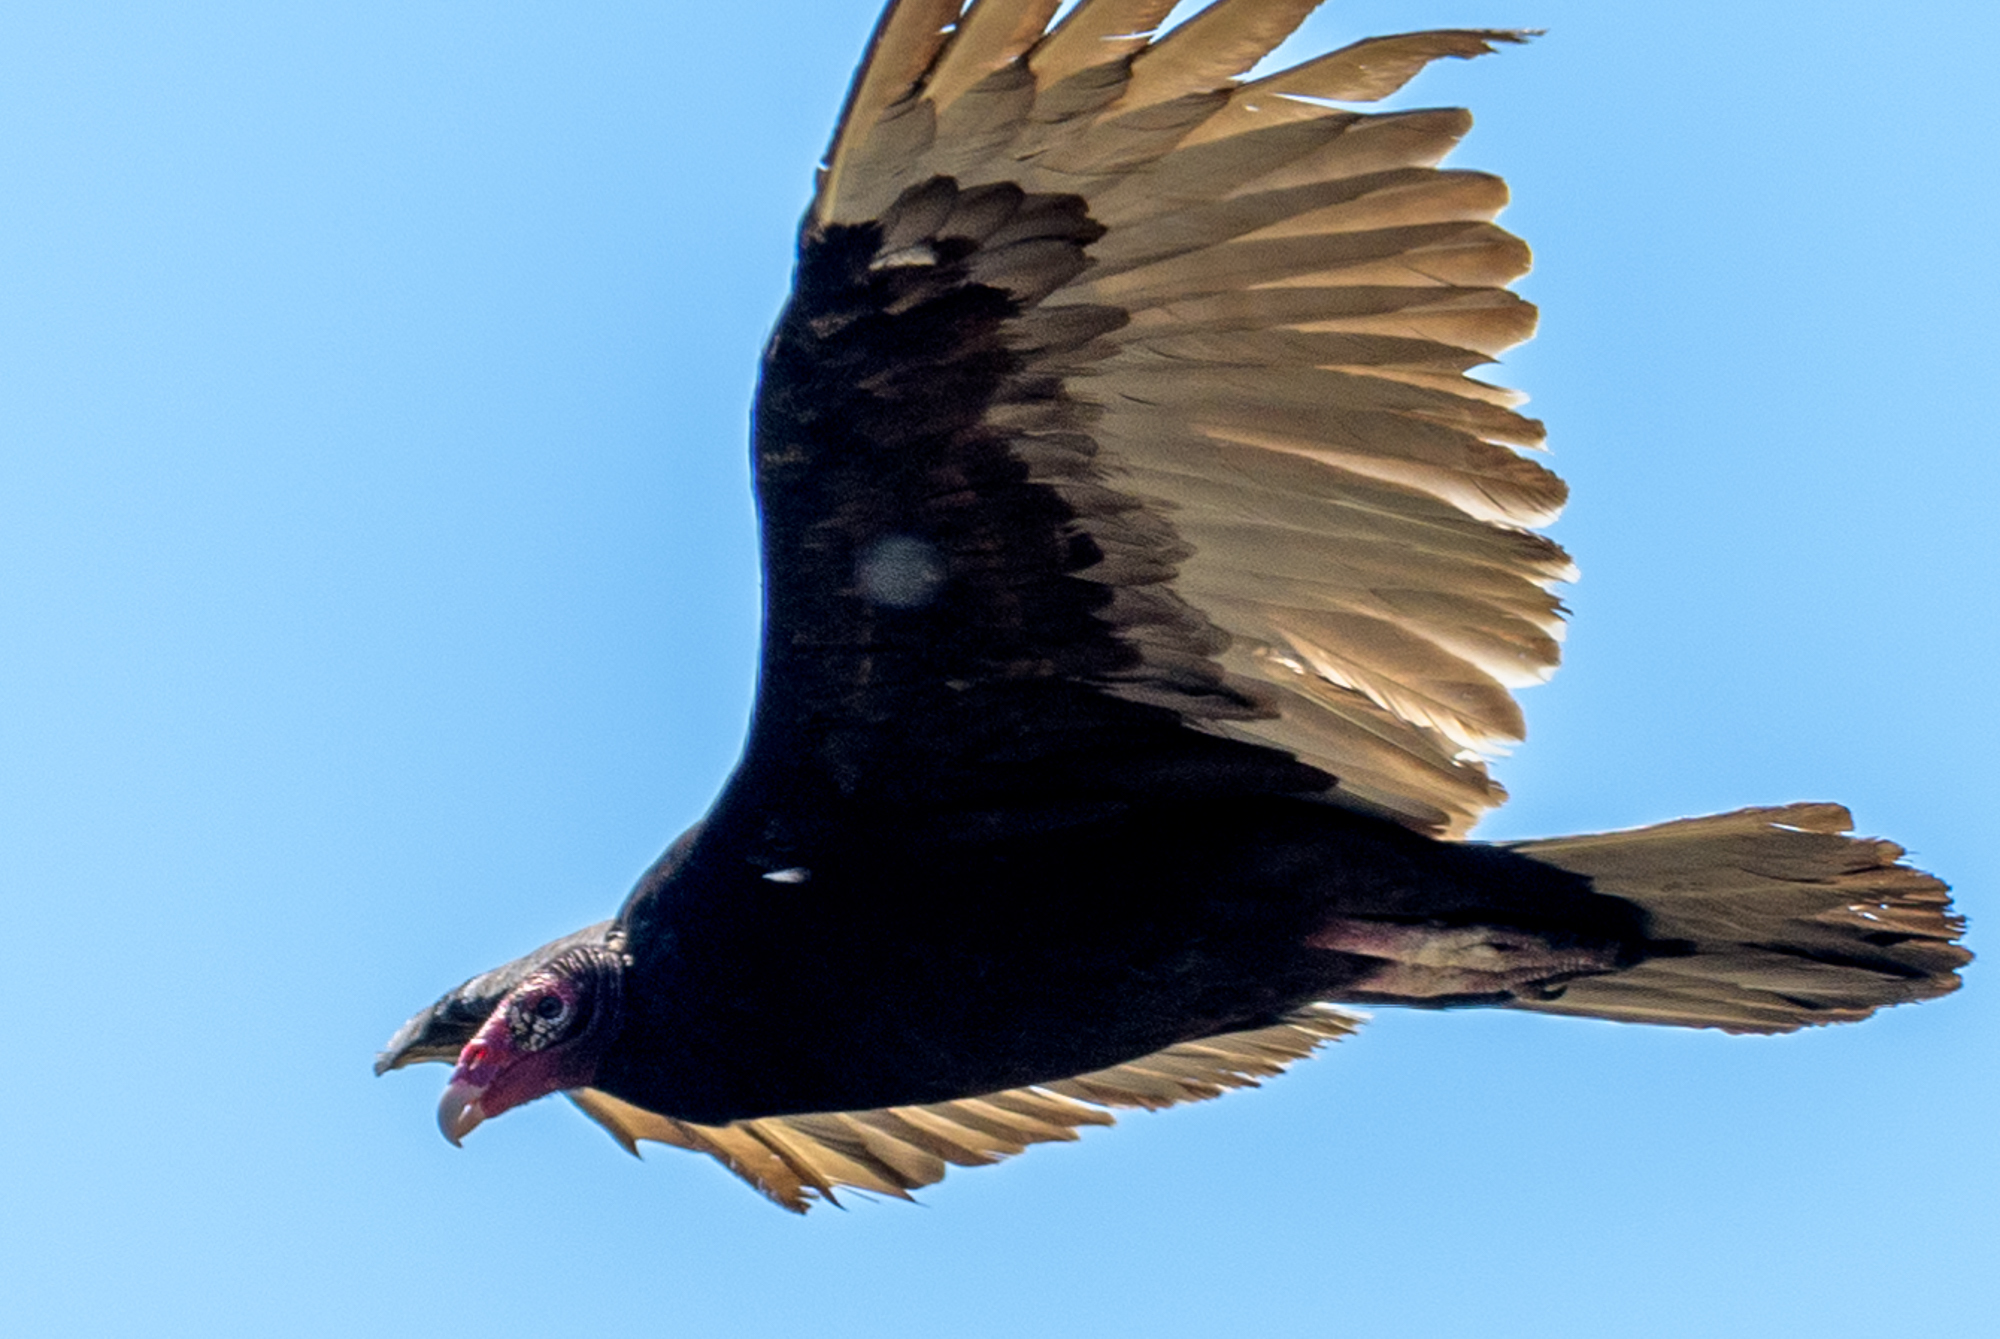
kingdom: Animalia
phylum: Chordata
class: Aves
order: Accipitriformes
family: Cathartidae
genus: Cathartes
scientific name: Cathartes aura
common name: Turkey vulture
